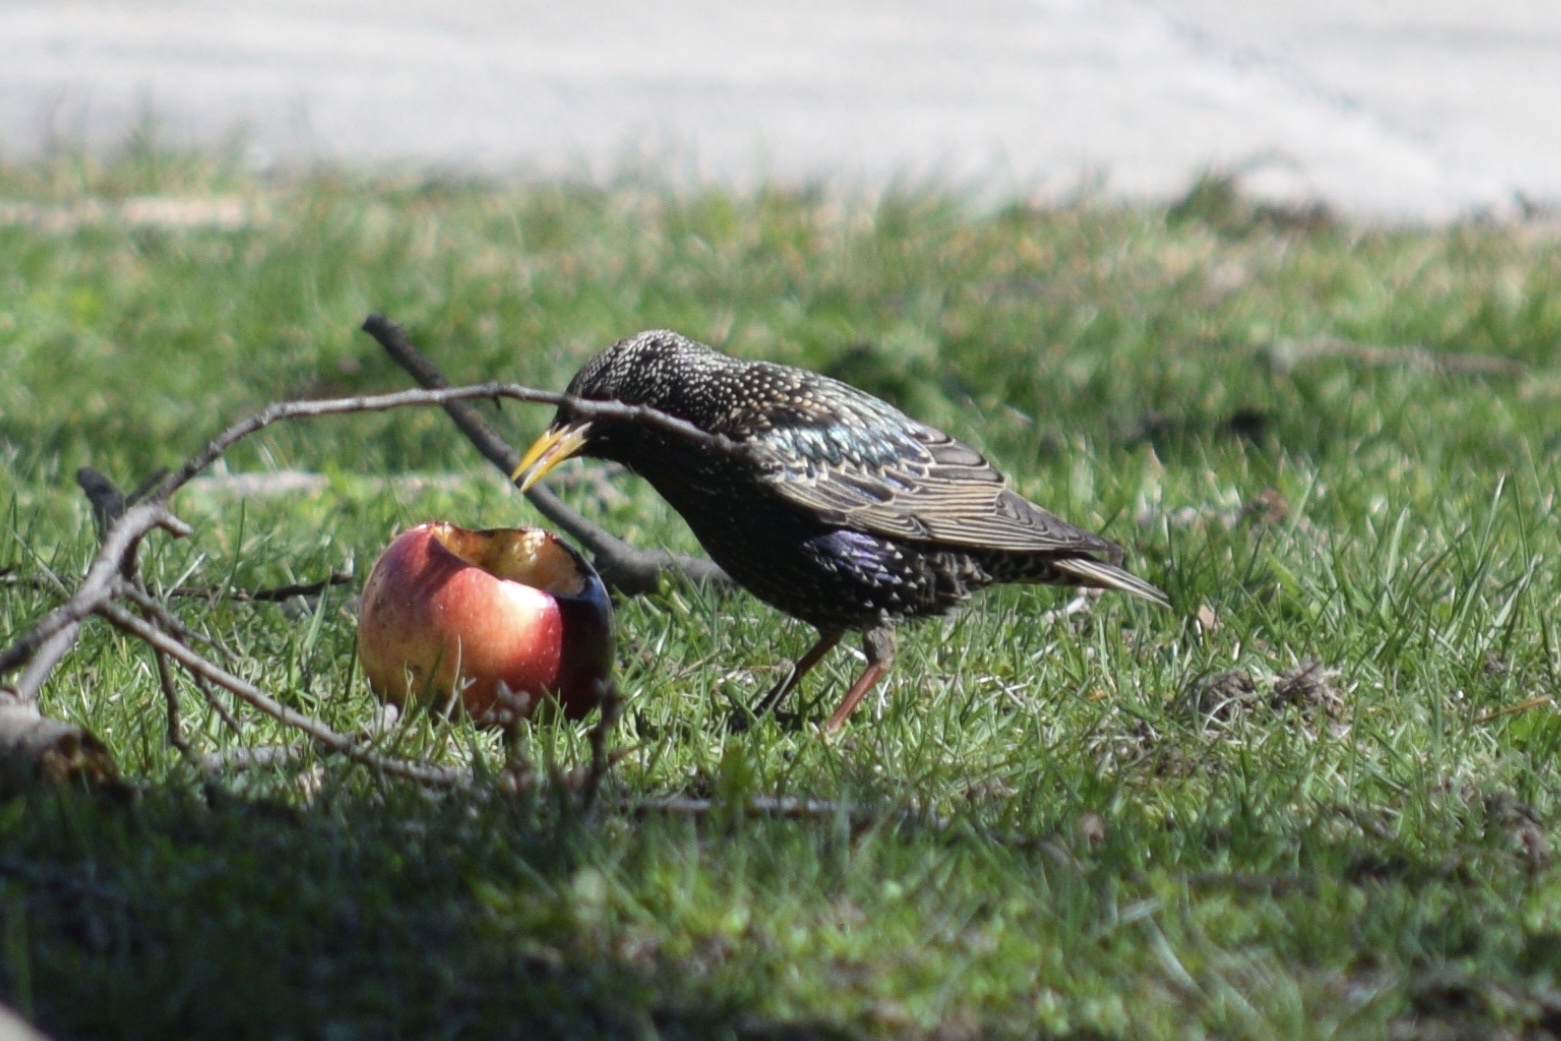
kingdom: Animalia
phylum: Chordata
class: Aves
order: Passeriformes
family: Sturnidae
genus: Sturnus
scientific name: Sturnus vulgaris
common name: Common starling
